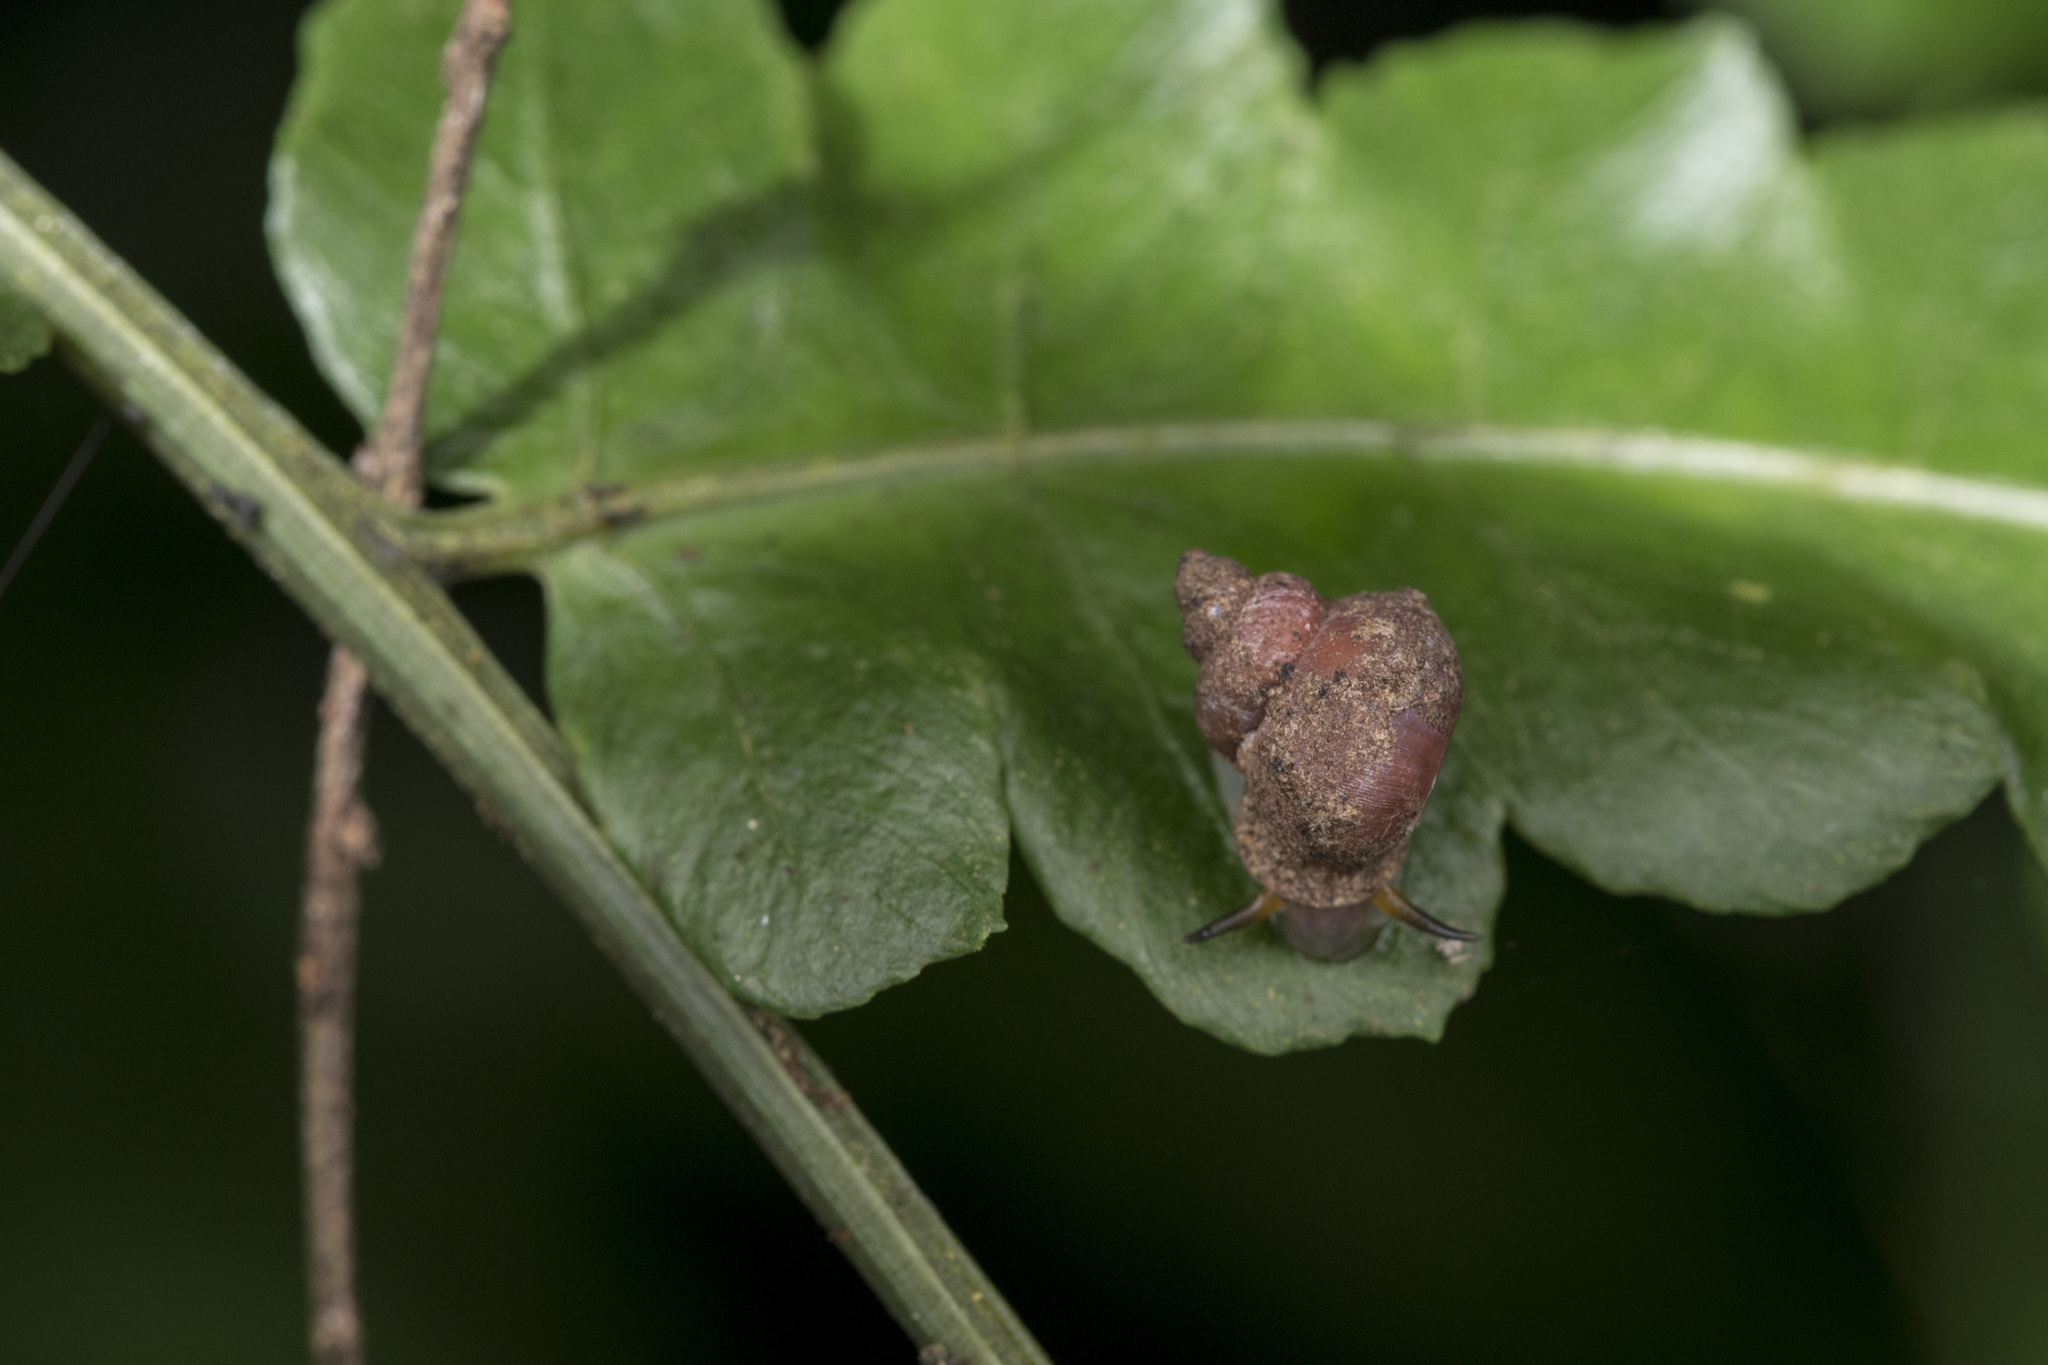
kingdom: Animalia
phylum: Mollusca
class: Gastropoda
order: Architaenioglossa
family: Alycaeidae
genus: Dioryx
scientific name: Dioryx swinhoei
